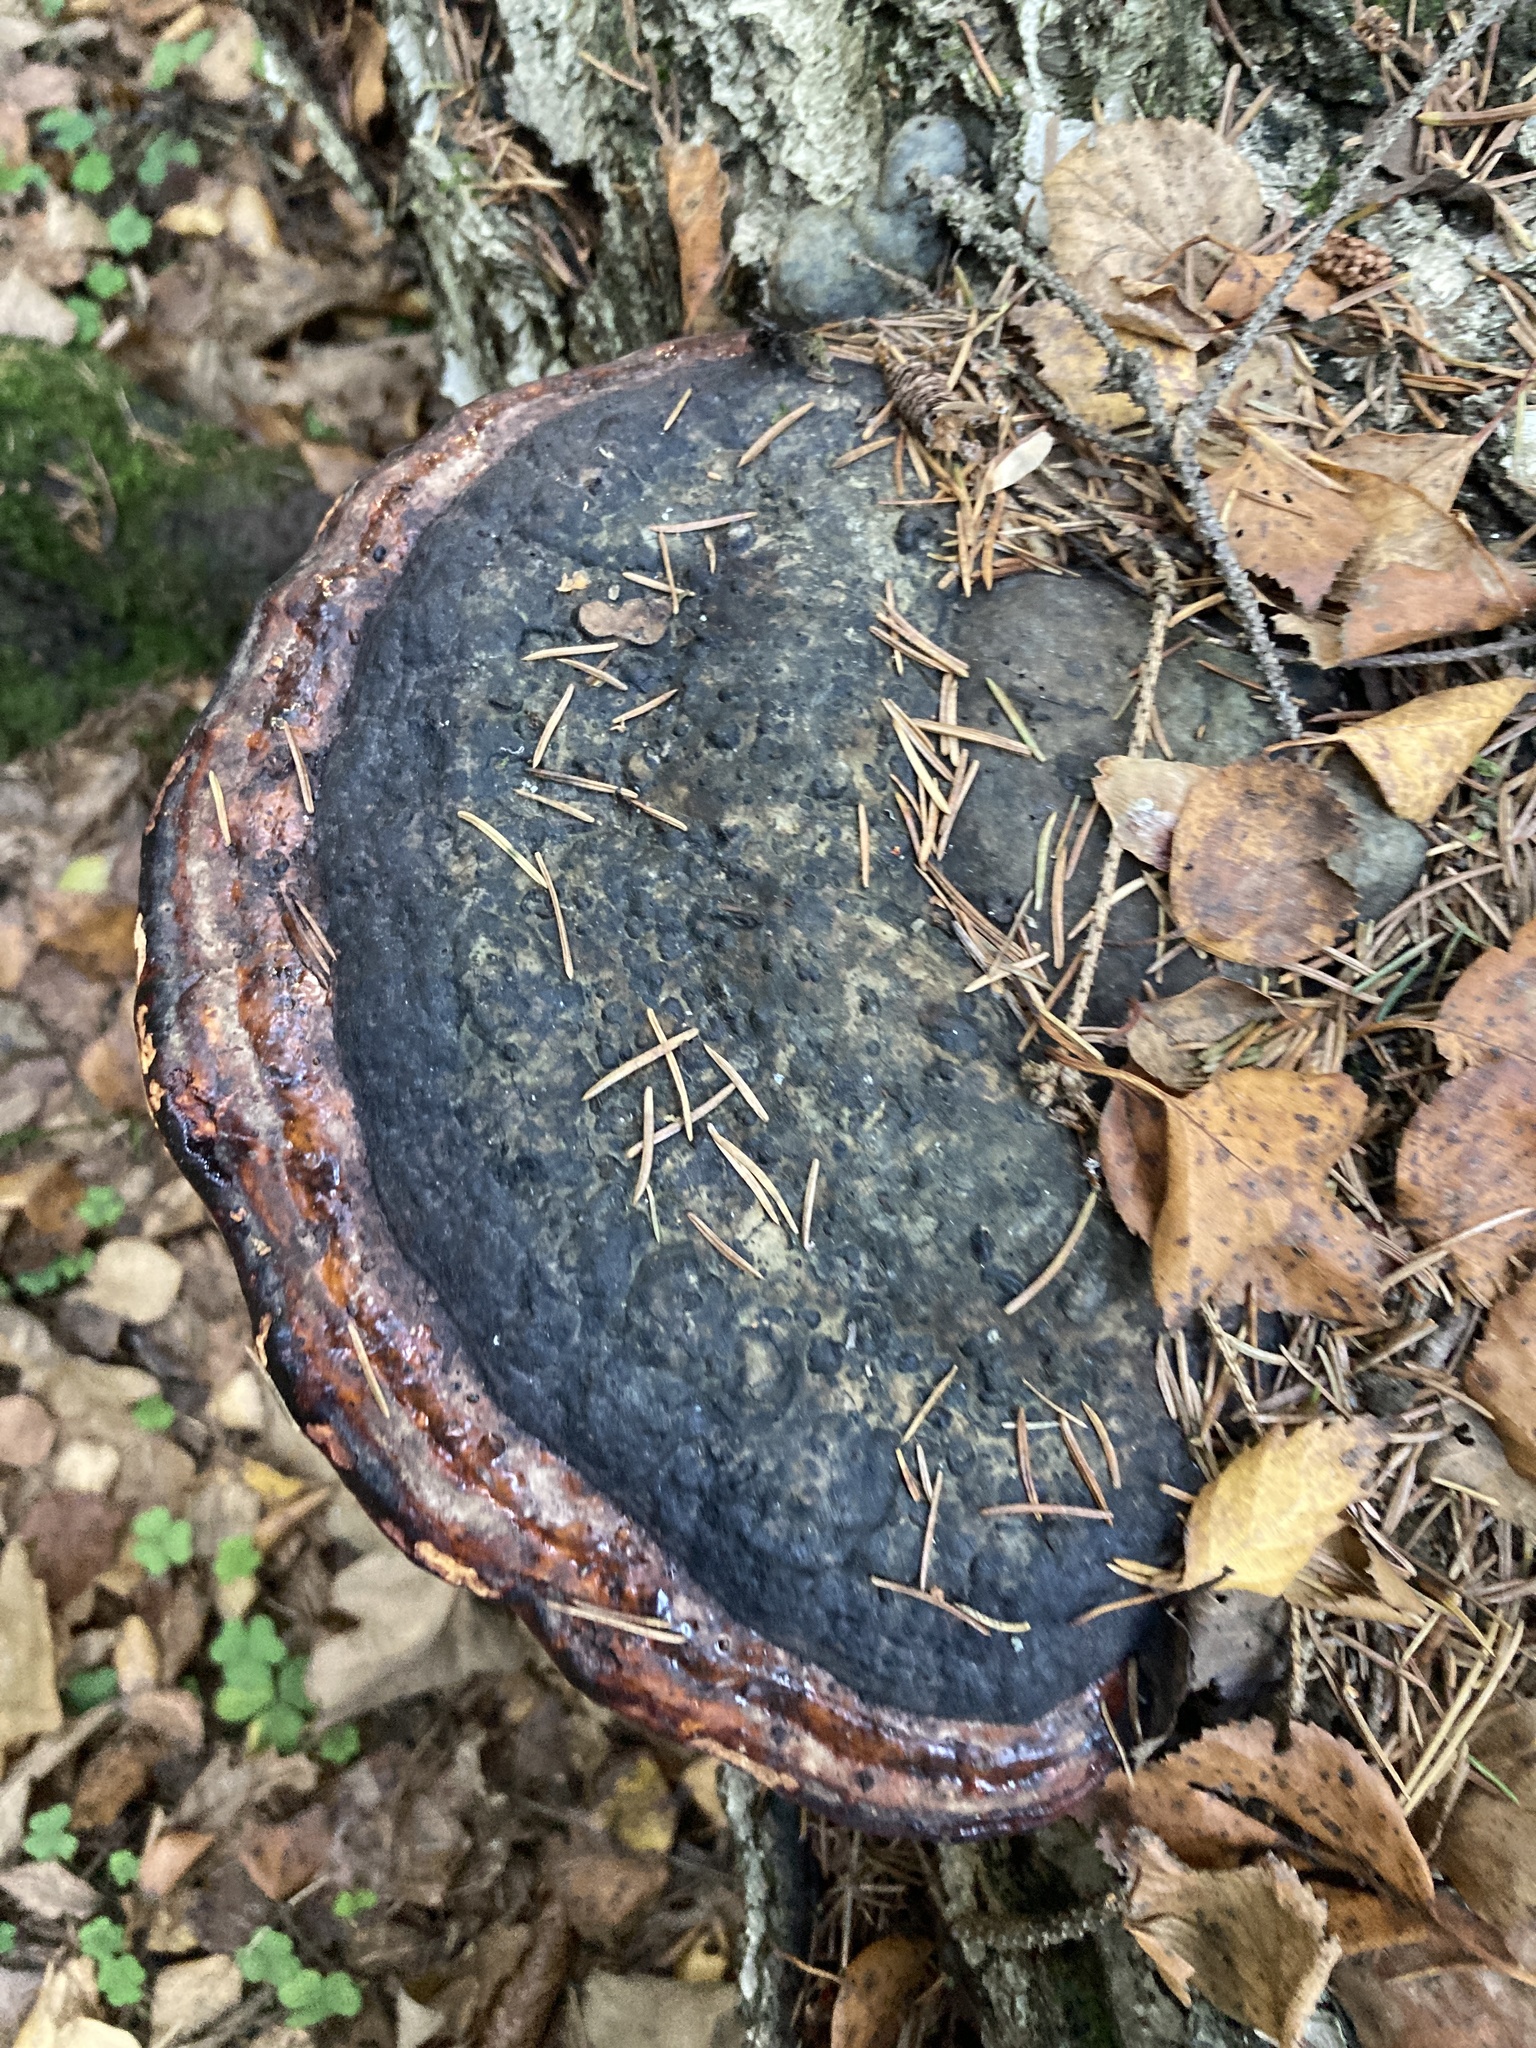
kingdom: Fungi
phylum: Basidiomycota
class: Agaricomycetes
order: Polyporales
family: Fomitopsidaceae
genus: Fomitopsis
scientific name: Fomitopsis pinicola
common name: Red-belted bracket
